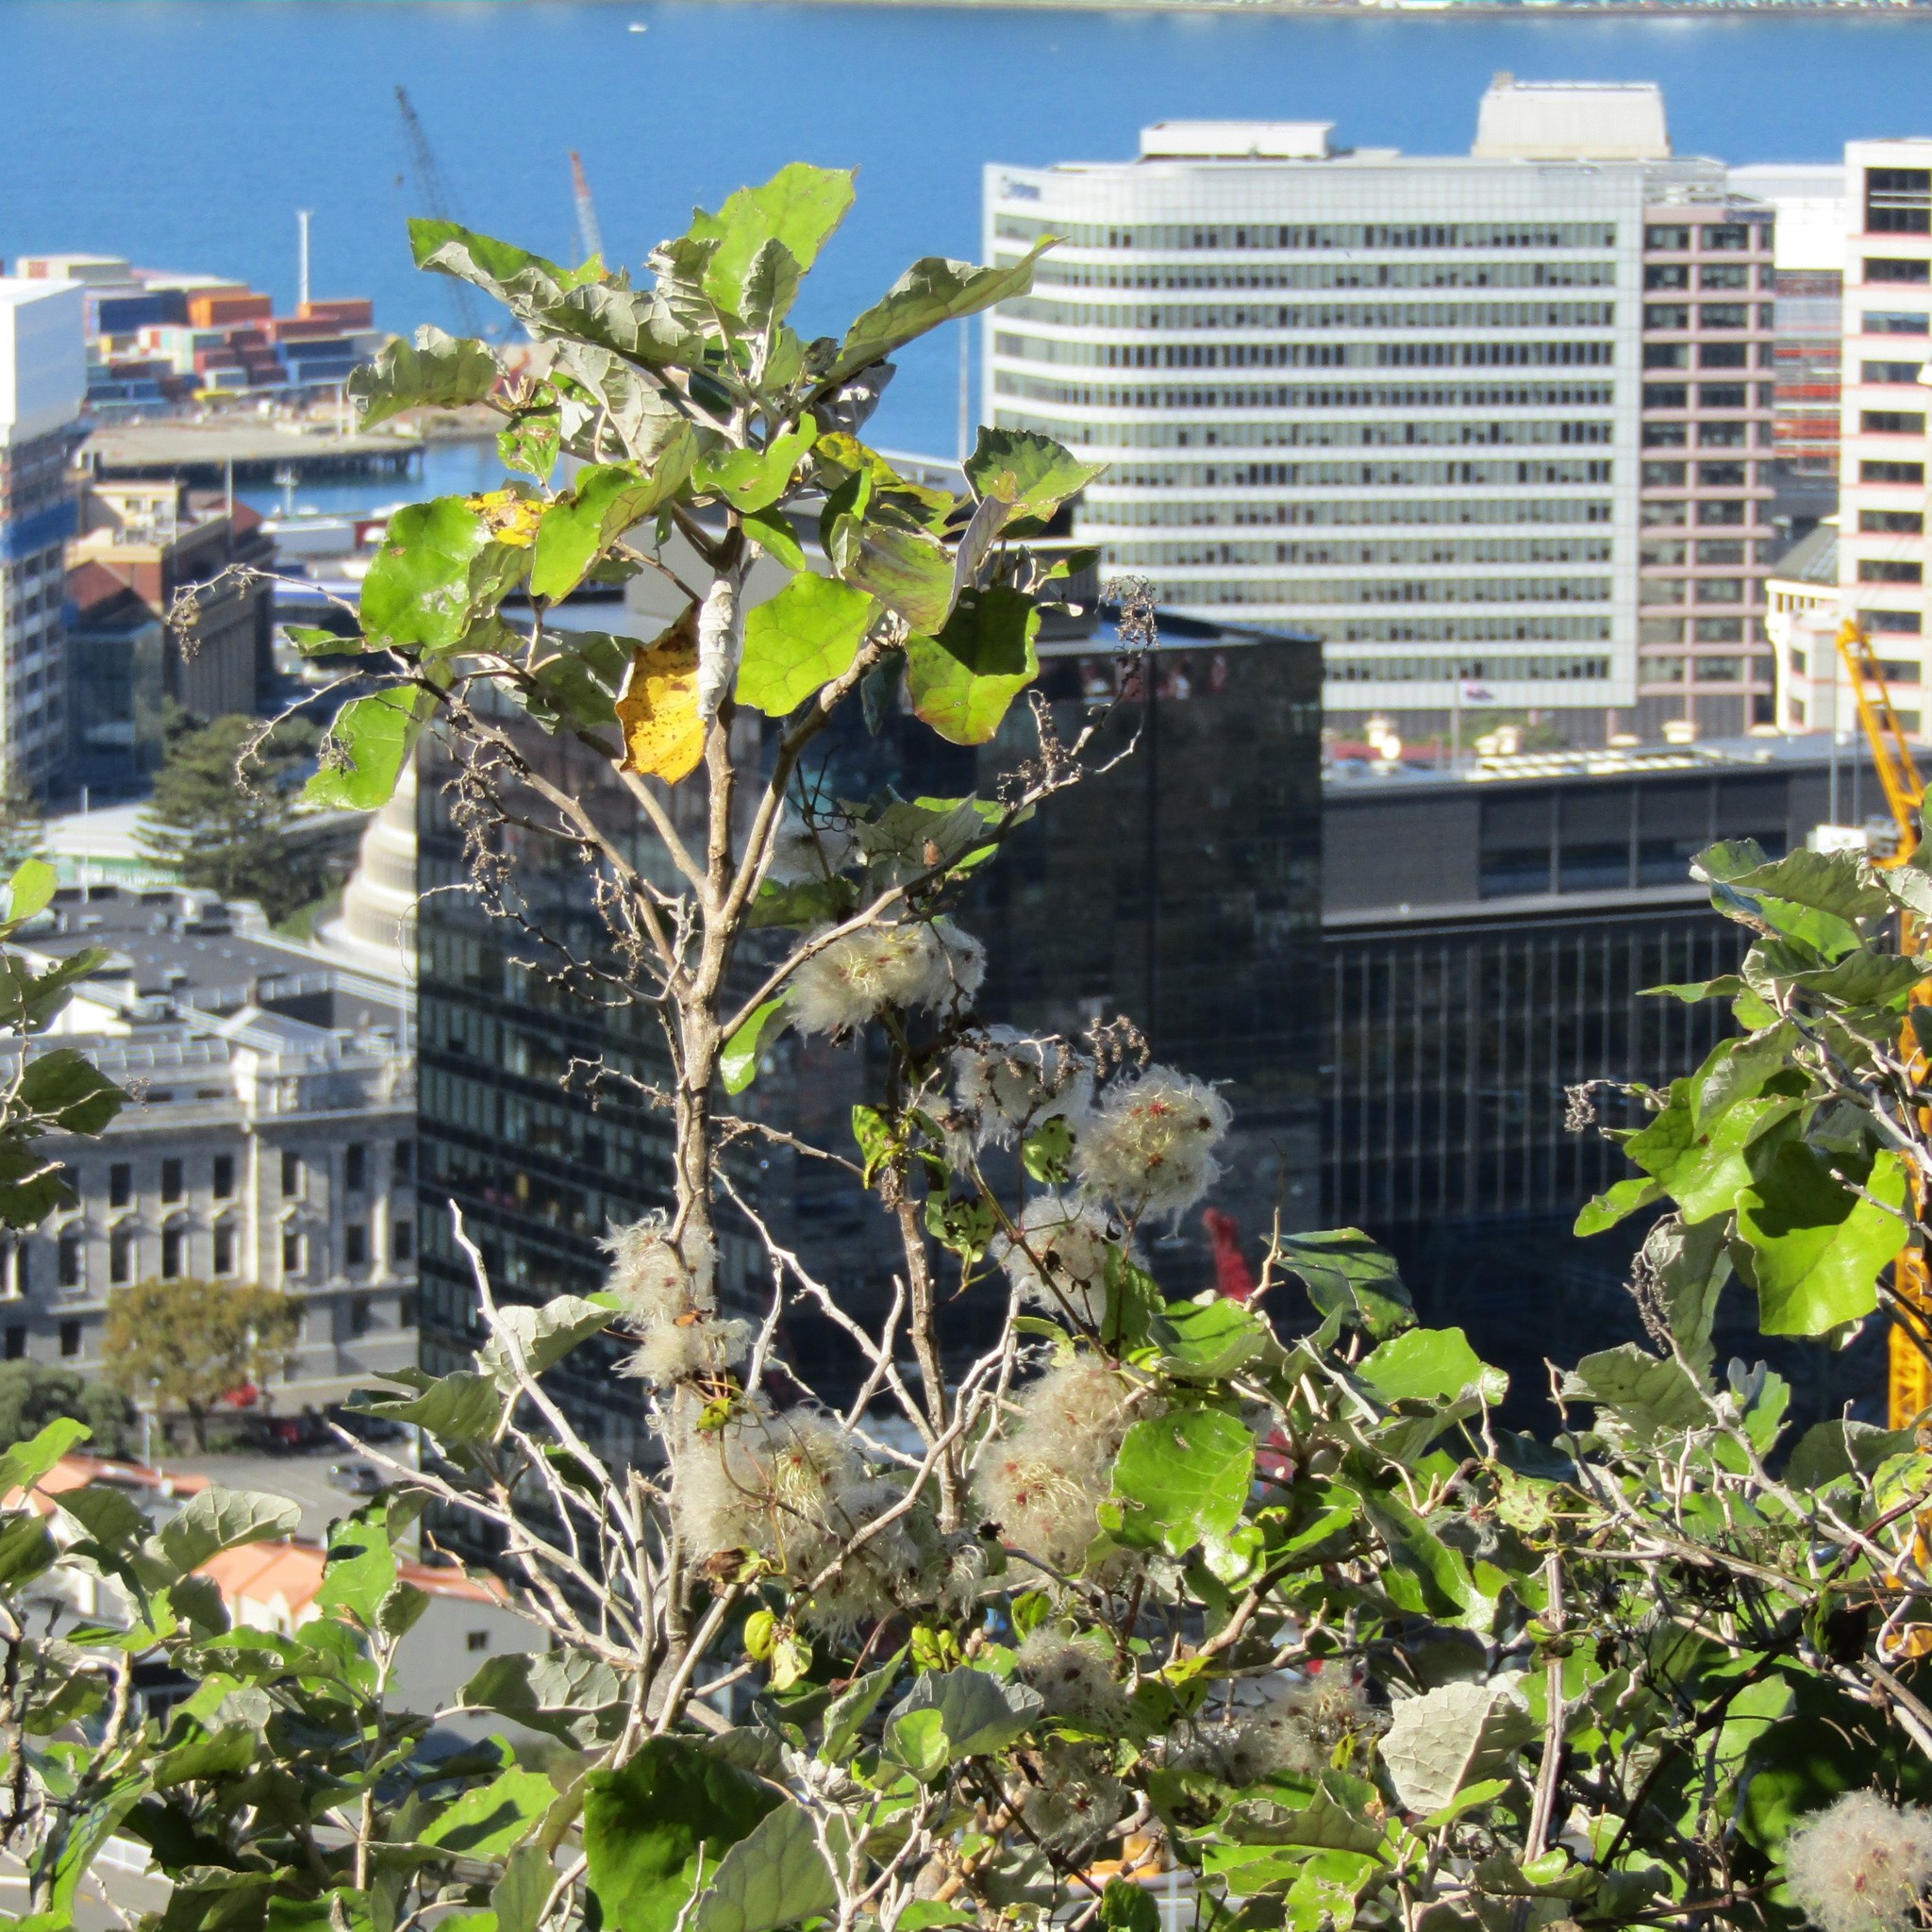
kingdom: Plantae
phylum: Tracheophyta
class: Magnoliopsida
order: Asterales
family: Asteraceae
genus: Brachyglottis
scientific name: Brachyglottis repanda
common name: Hedge ragwort
